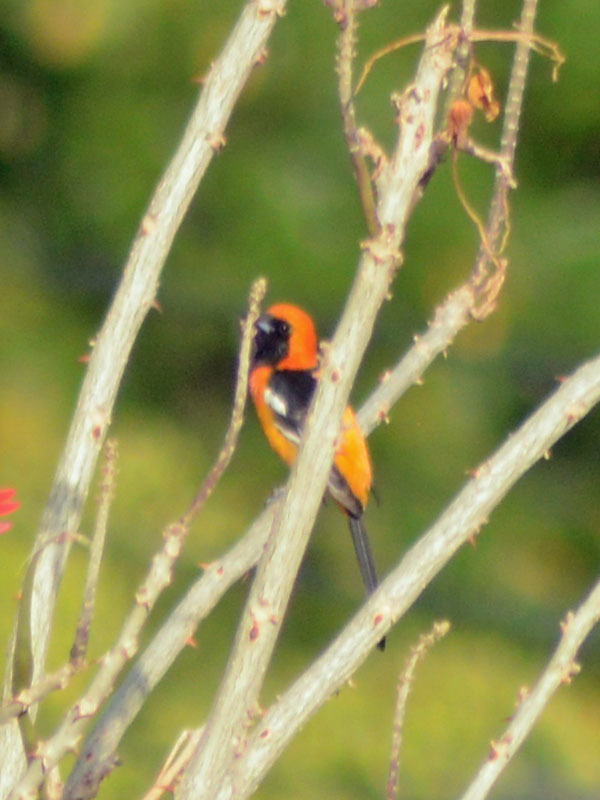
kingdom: Animalia
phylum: Chordata
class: Aves
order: Passeriformes
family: Icteridae
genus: Icterus
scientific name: Icterus cucullatus
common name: Hooded oriole
